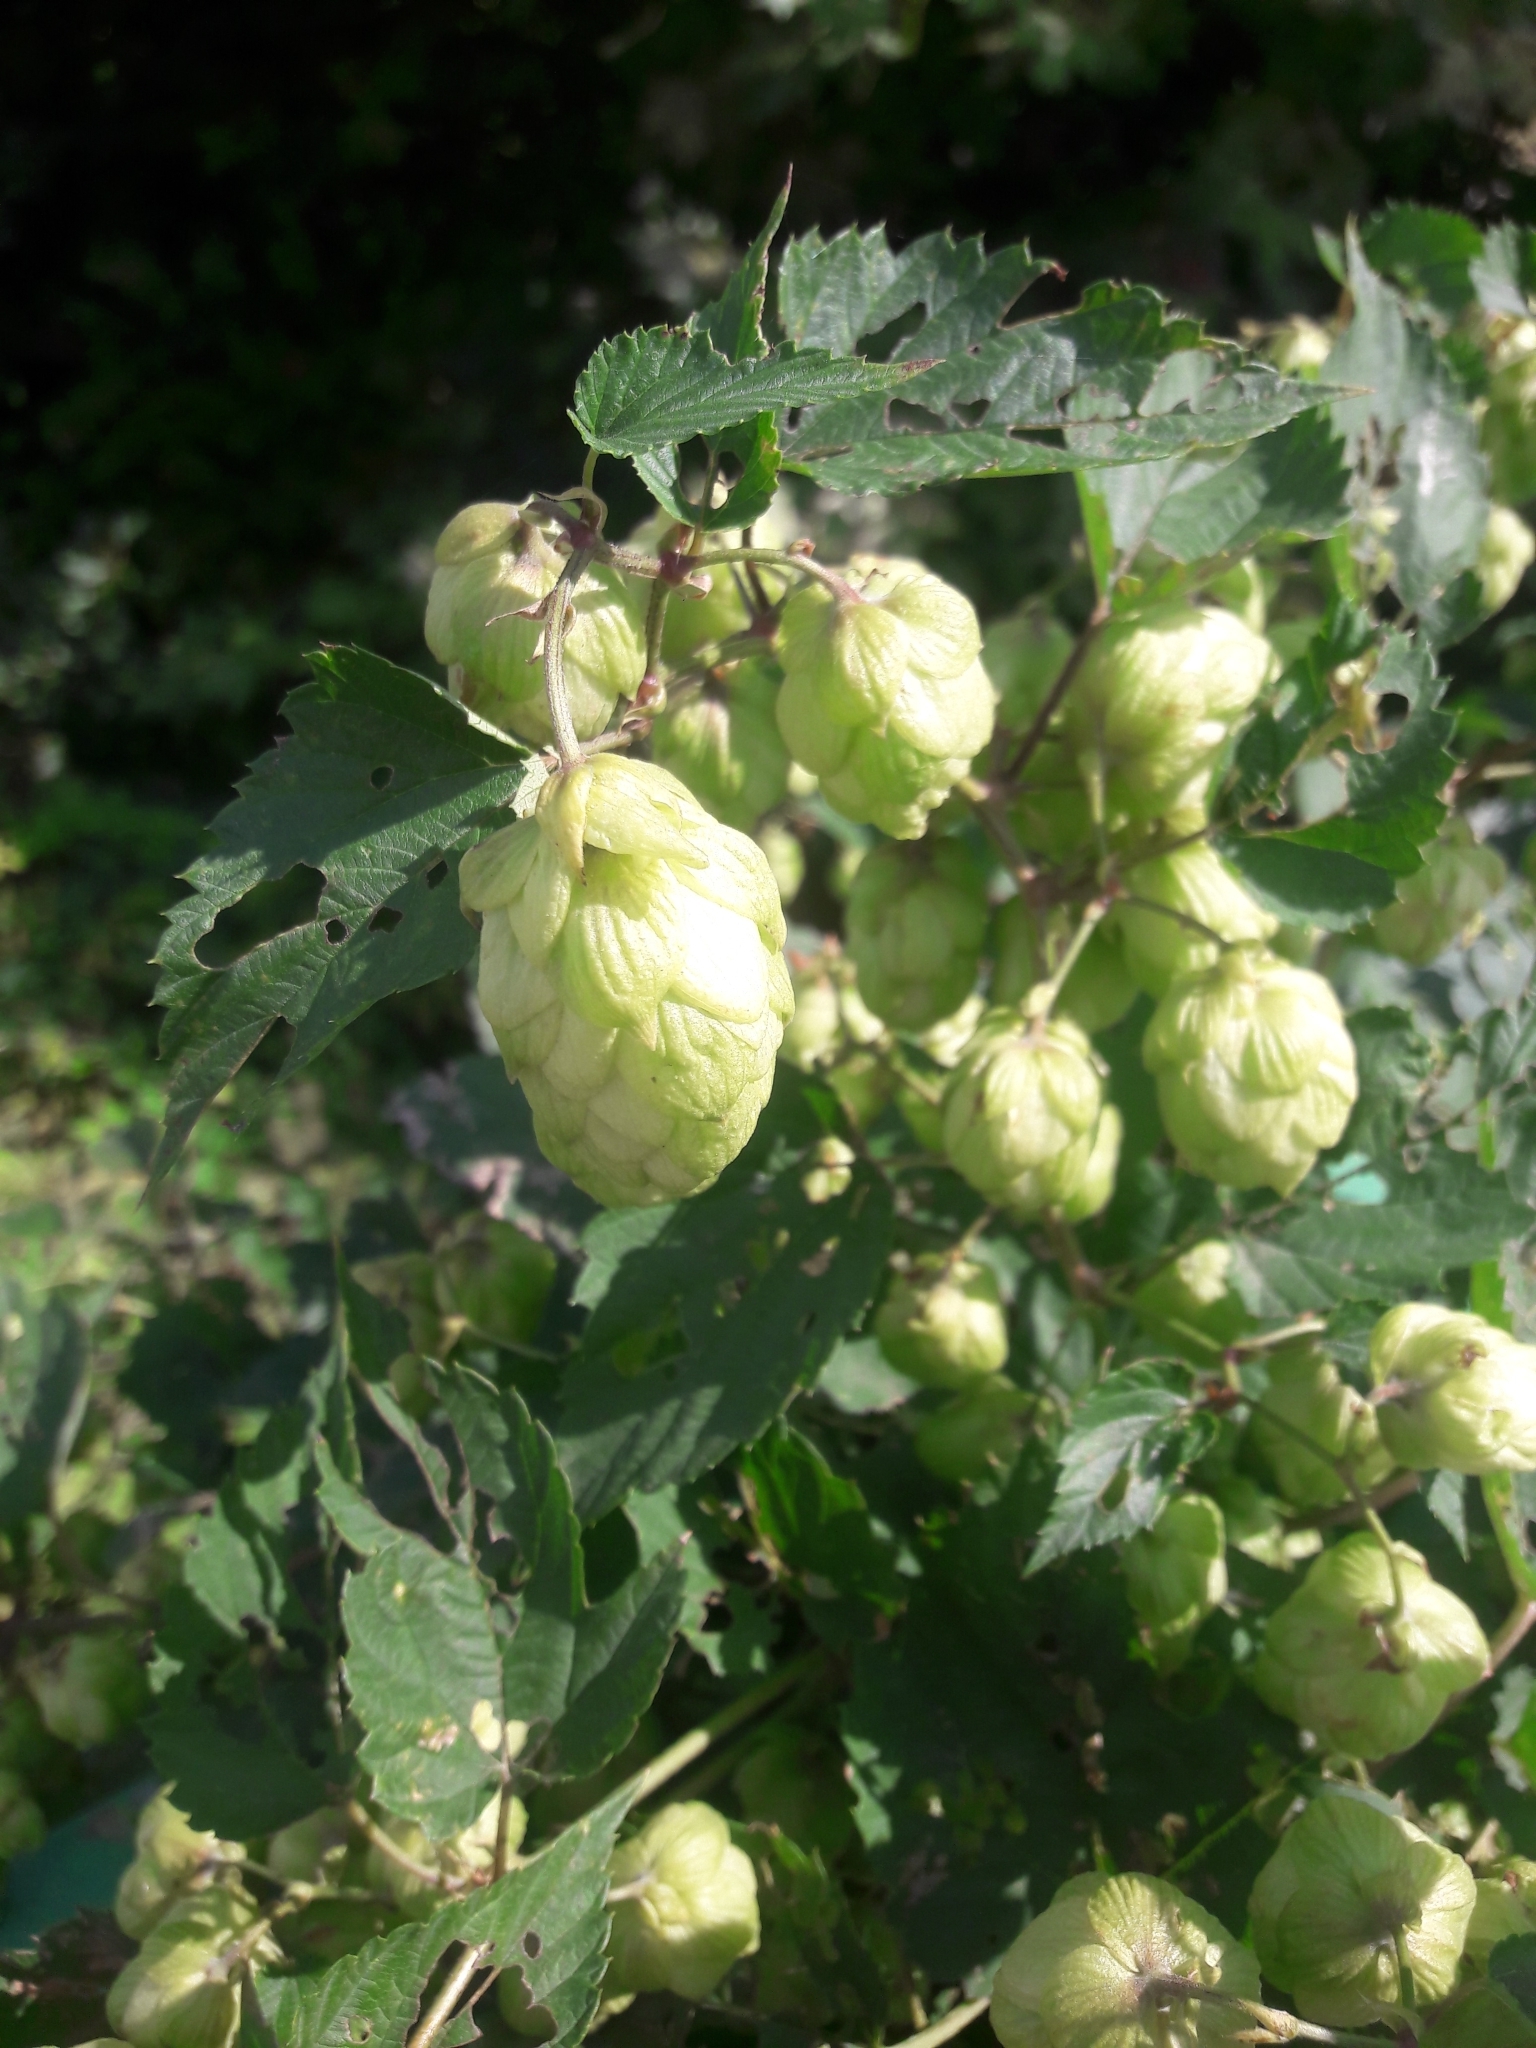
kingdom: Plantae
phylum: Tracheophyta
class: Magnoliopsida
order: Rosales
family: Cannabaceae
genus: Humulus
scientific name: Humulus lupulus
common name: Hop
